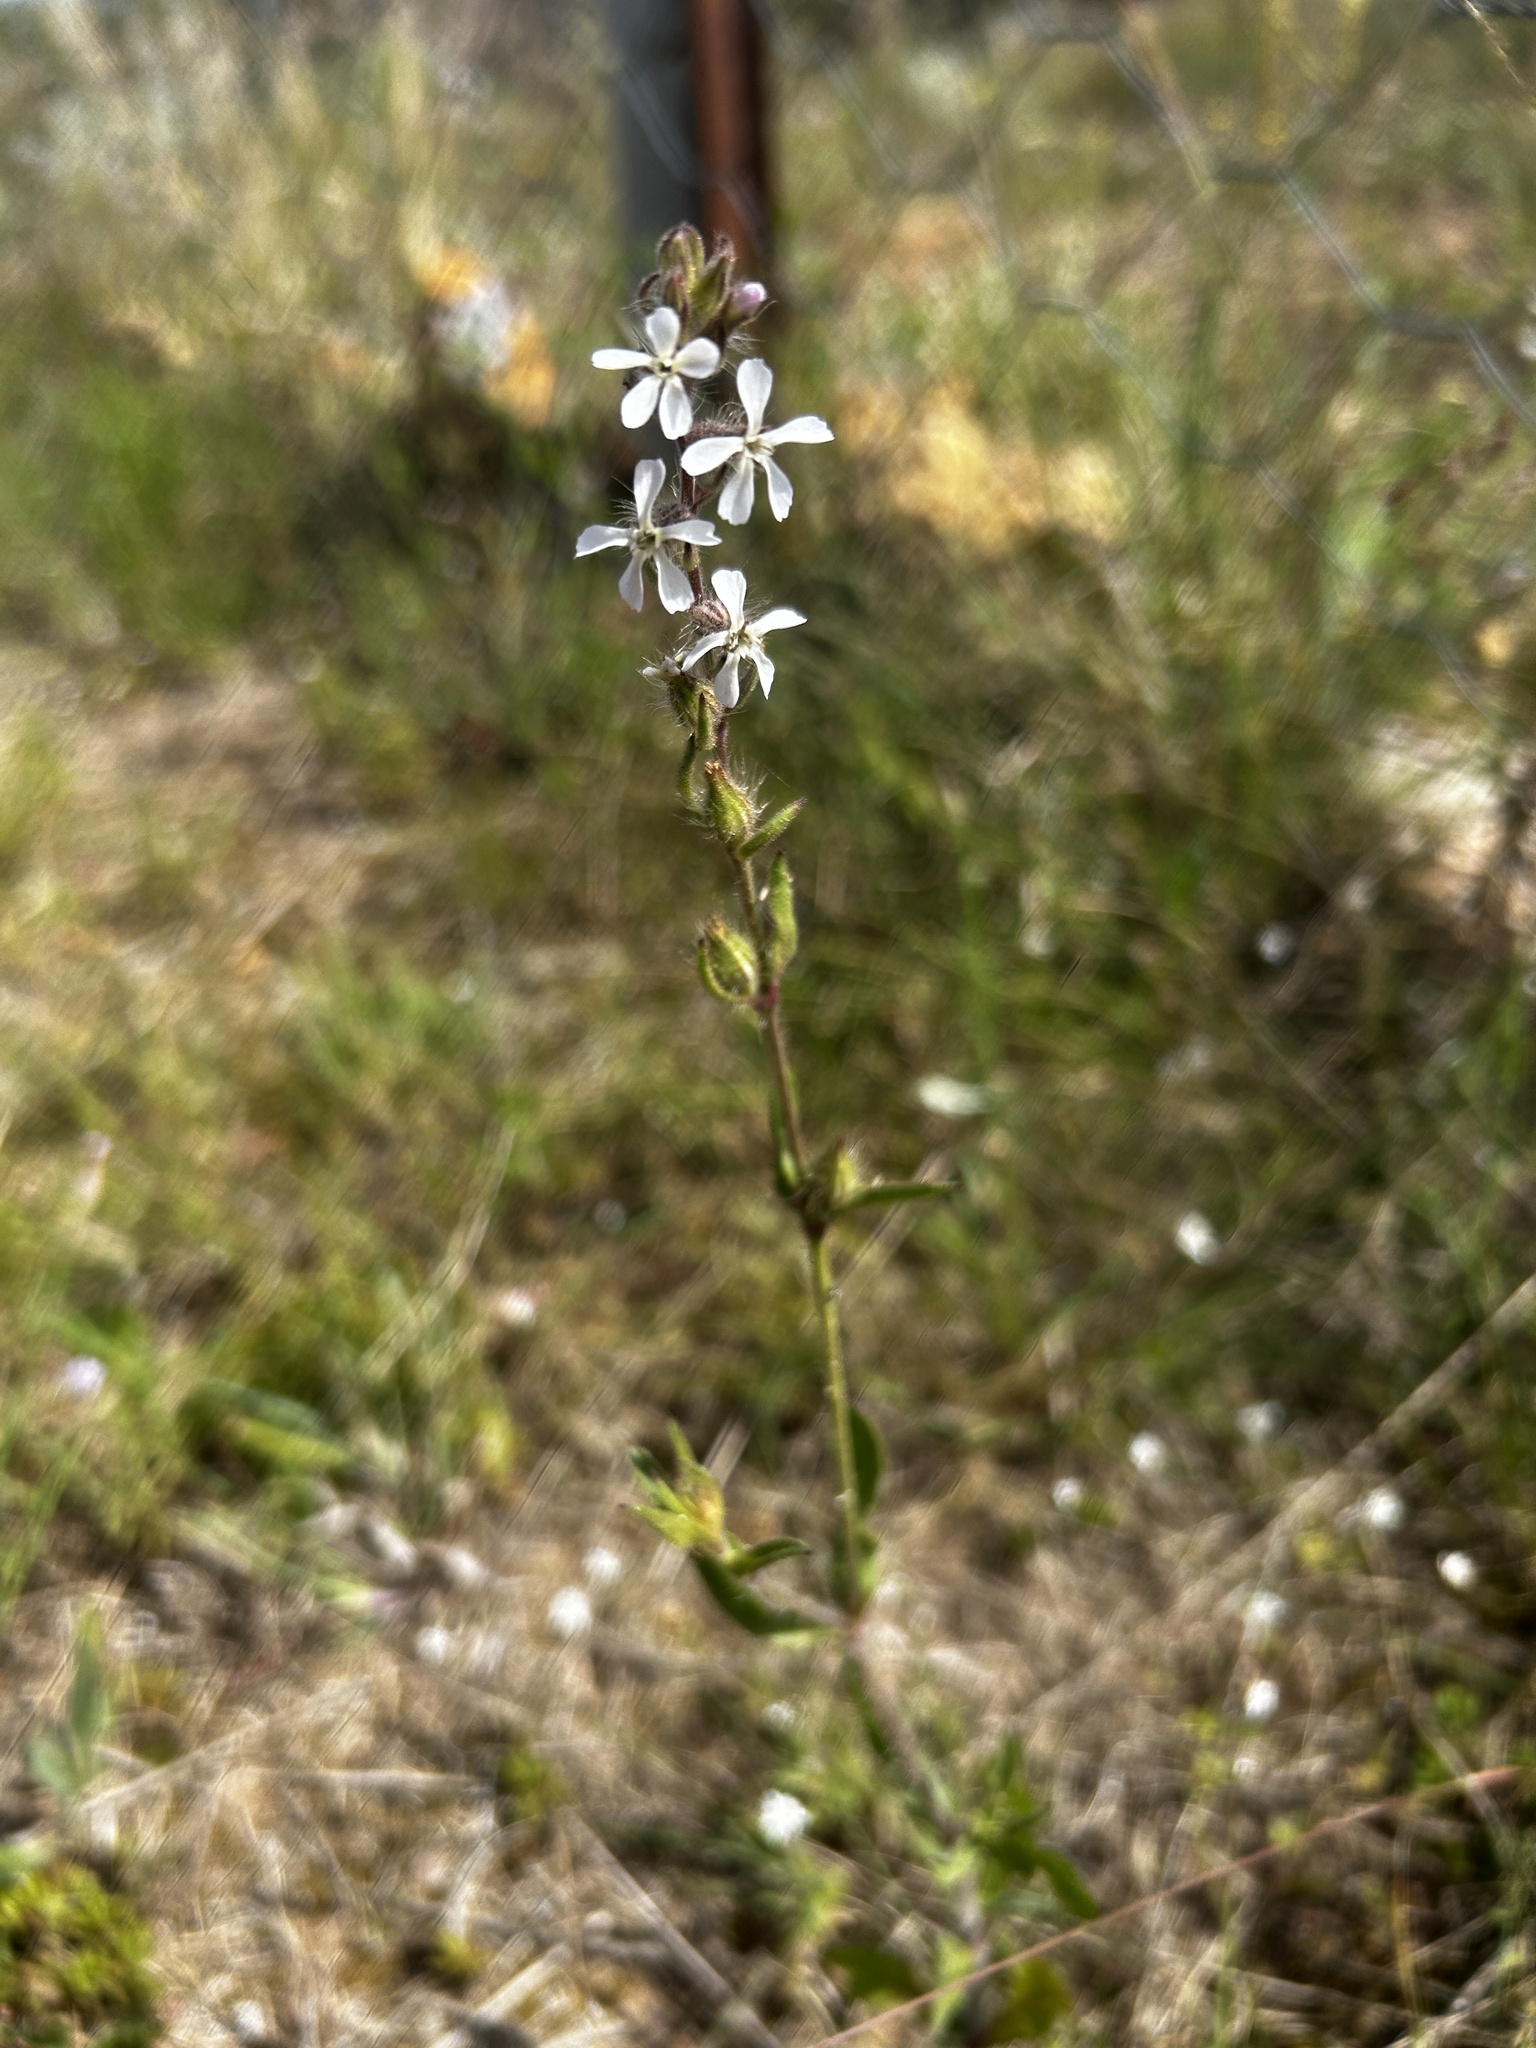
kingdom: Plantae
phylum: Tracheophyta
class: Magnoliopsida
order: Caryophyllales
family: Caryophyllaceae
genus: Silene
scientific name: Silene gallica
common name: Small-flowered catchfly
